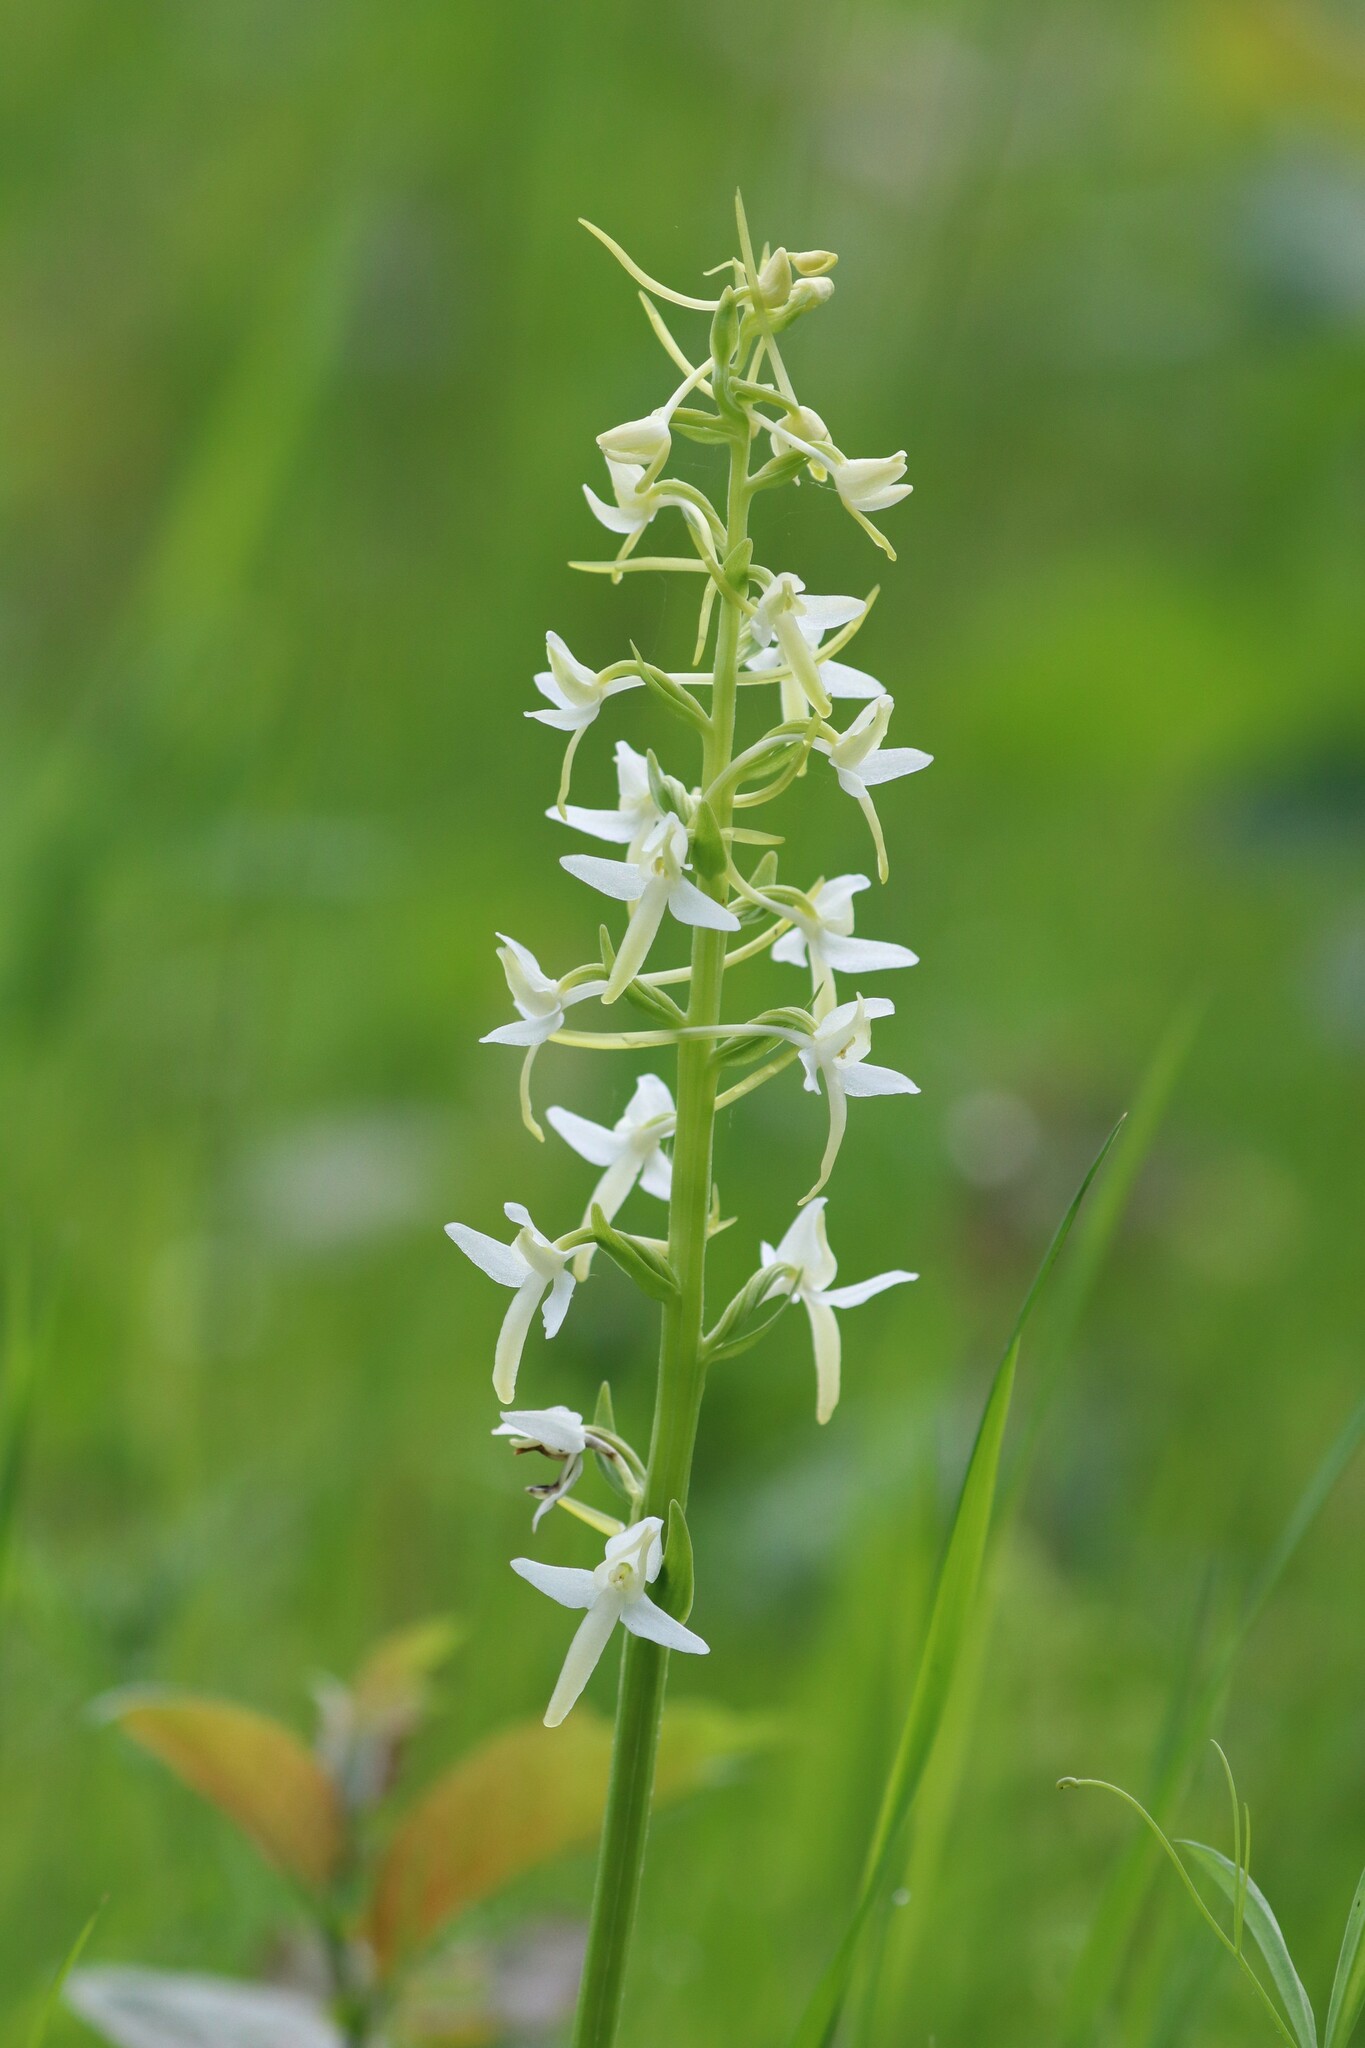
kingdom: Plantae
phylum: Tracheophyta
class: Liliopsida
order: Asparagales
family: Orchidaceae
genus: Platanthera
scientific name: Platanthera bifolia
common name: Lesser butterfly-orchid
